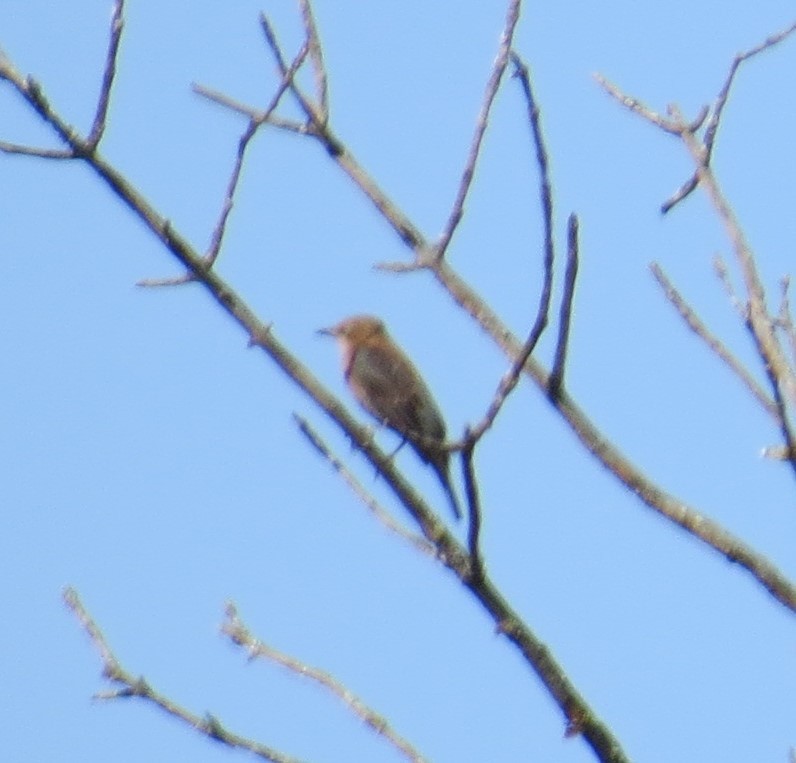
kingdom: Animalia
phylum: Chordata
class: Aves
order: Passeriformes
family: Icteridae
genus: Euphagus
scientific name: Euphagus carolinus
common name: Rusty blackbird
